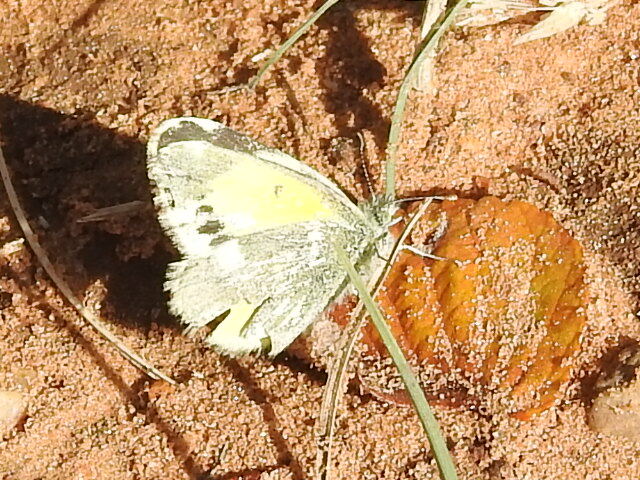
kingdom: Animalia
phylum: Arthropoda
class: Insecta
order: Lepidoptera
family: Pieridae
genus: Nathalis
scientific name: Nathalis iole
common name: Dainty sulphur
